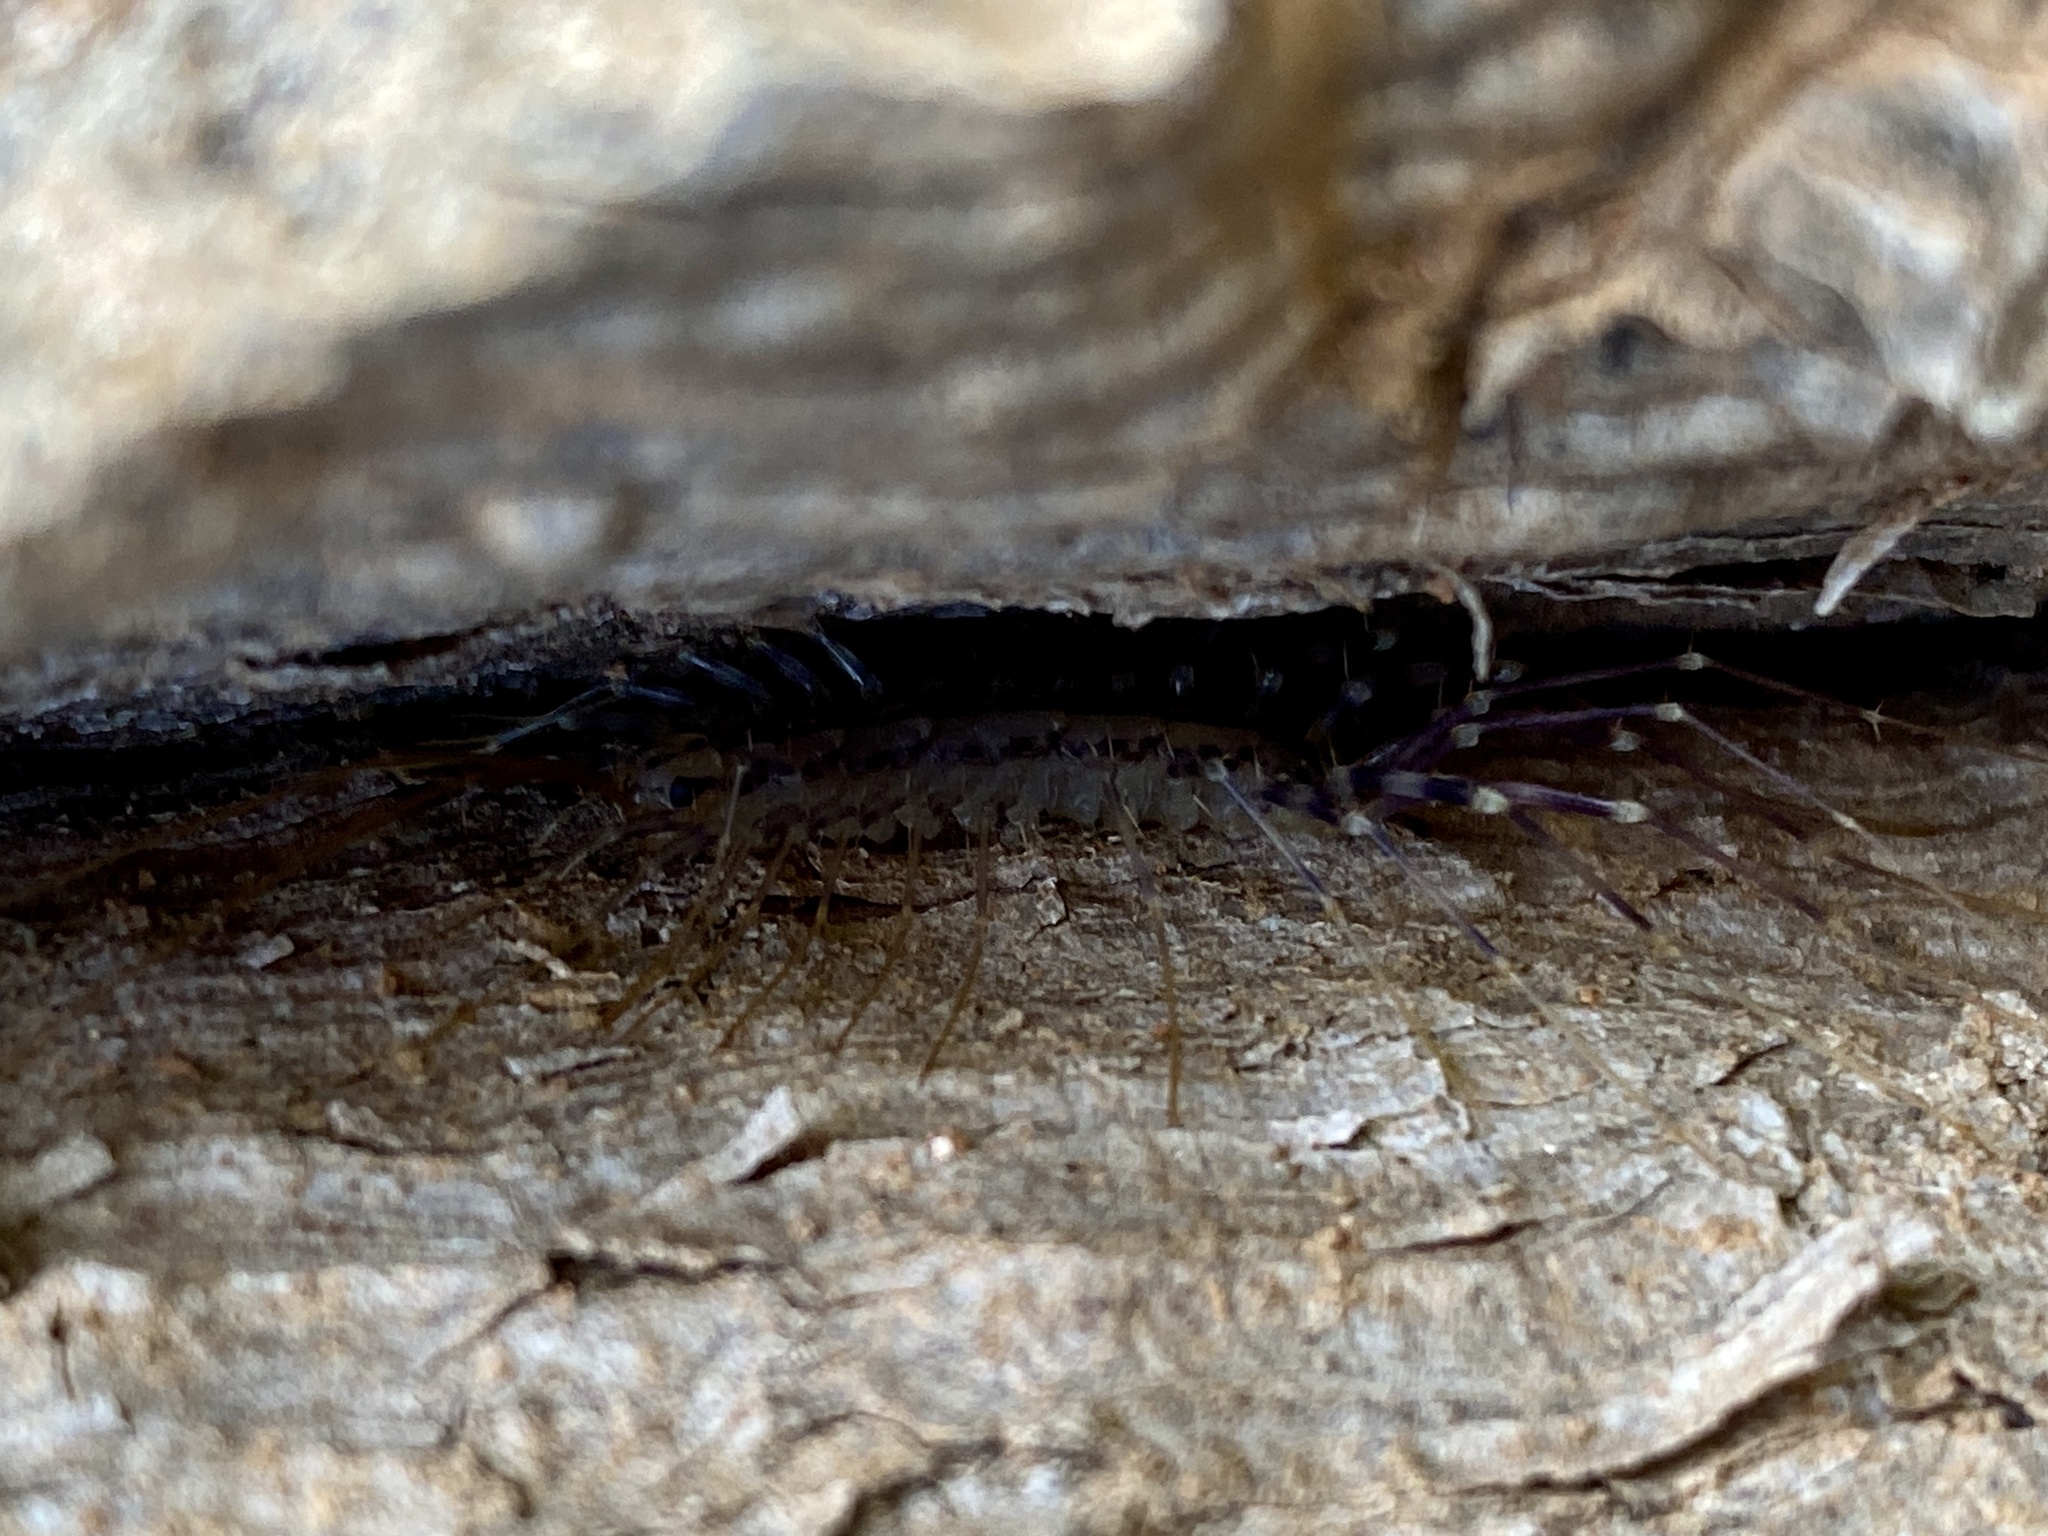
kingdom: Animalia
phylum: Arthropoda
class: Chilopoda
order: Scutigeromorpha
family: Scutigeridae
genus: Scutigera
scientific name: Scutigera coleoptrata
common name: House centipede
